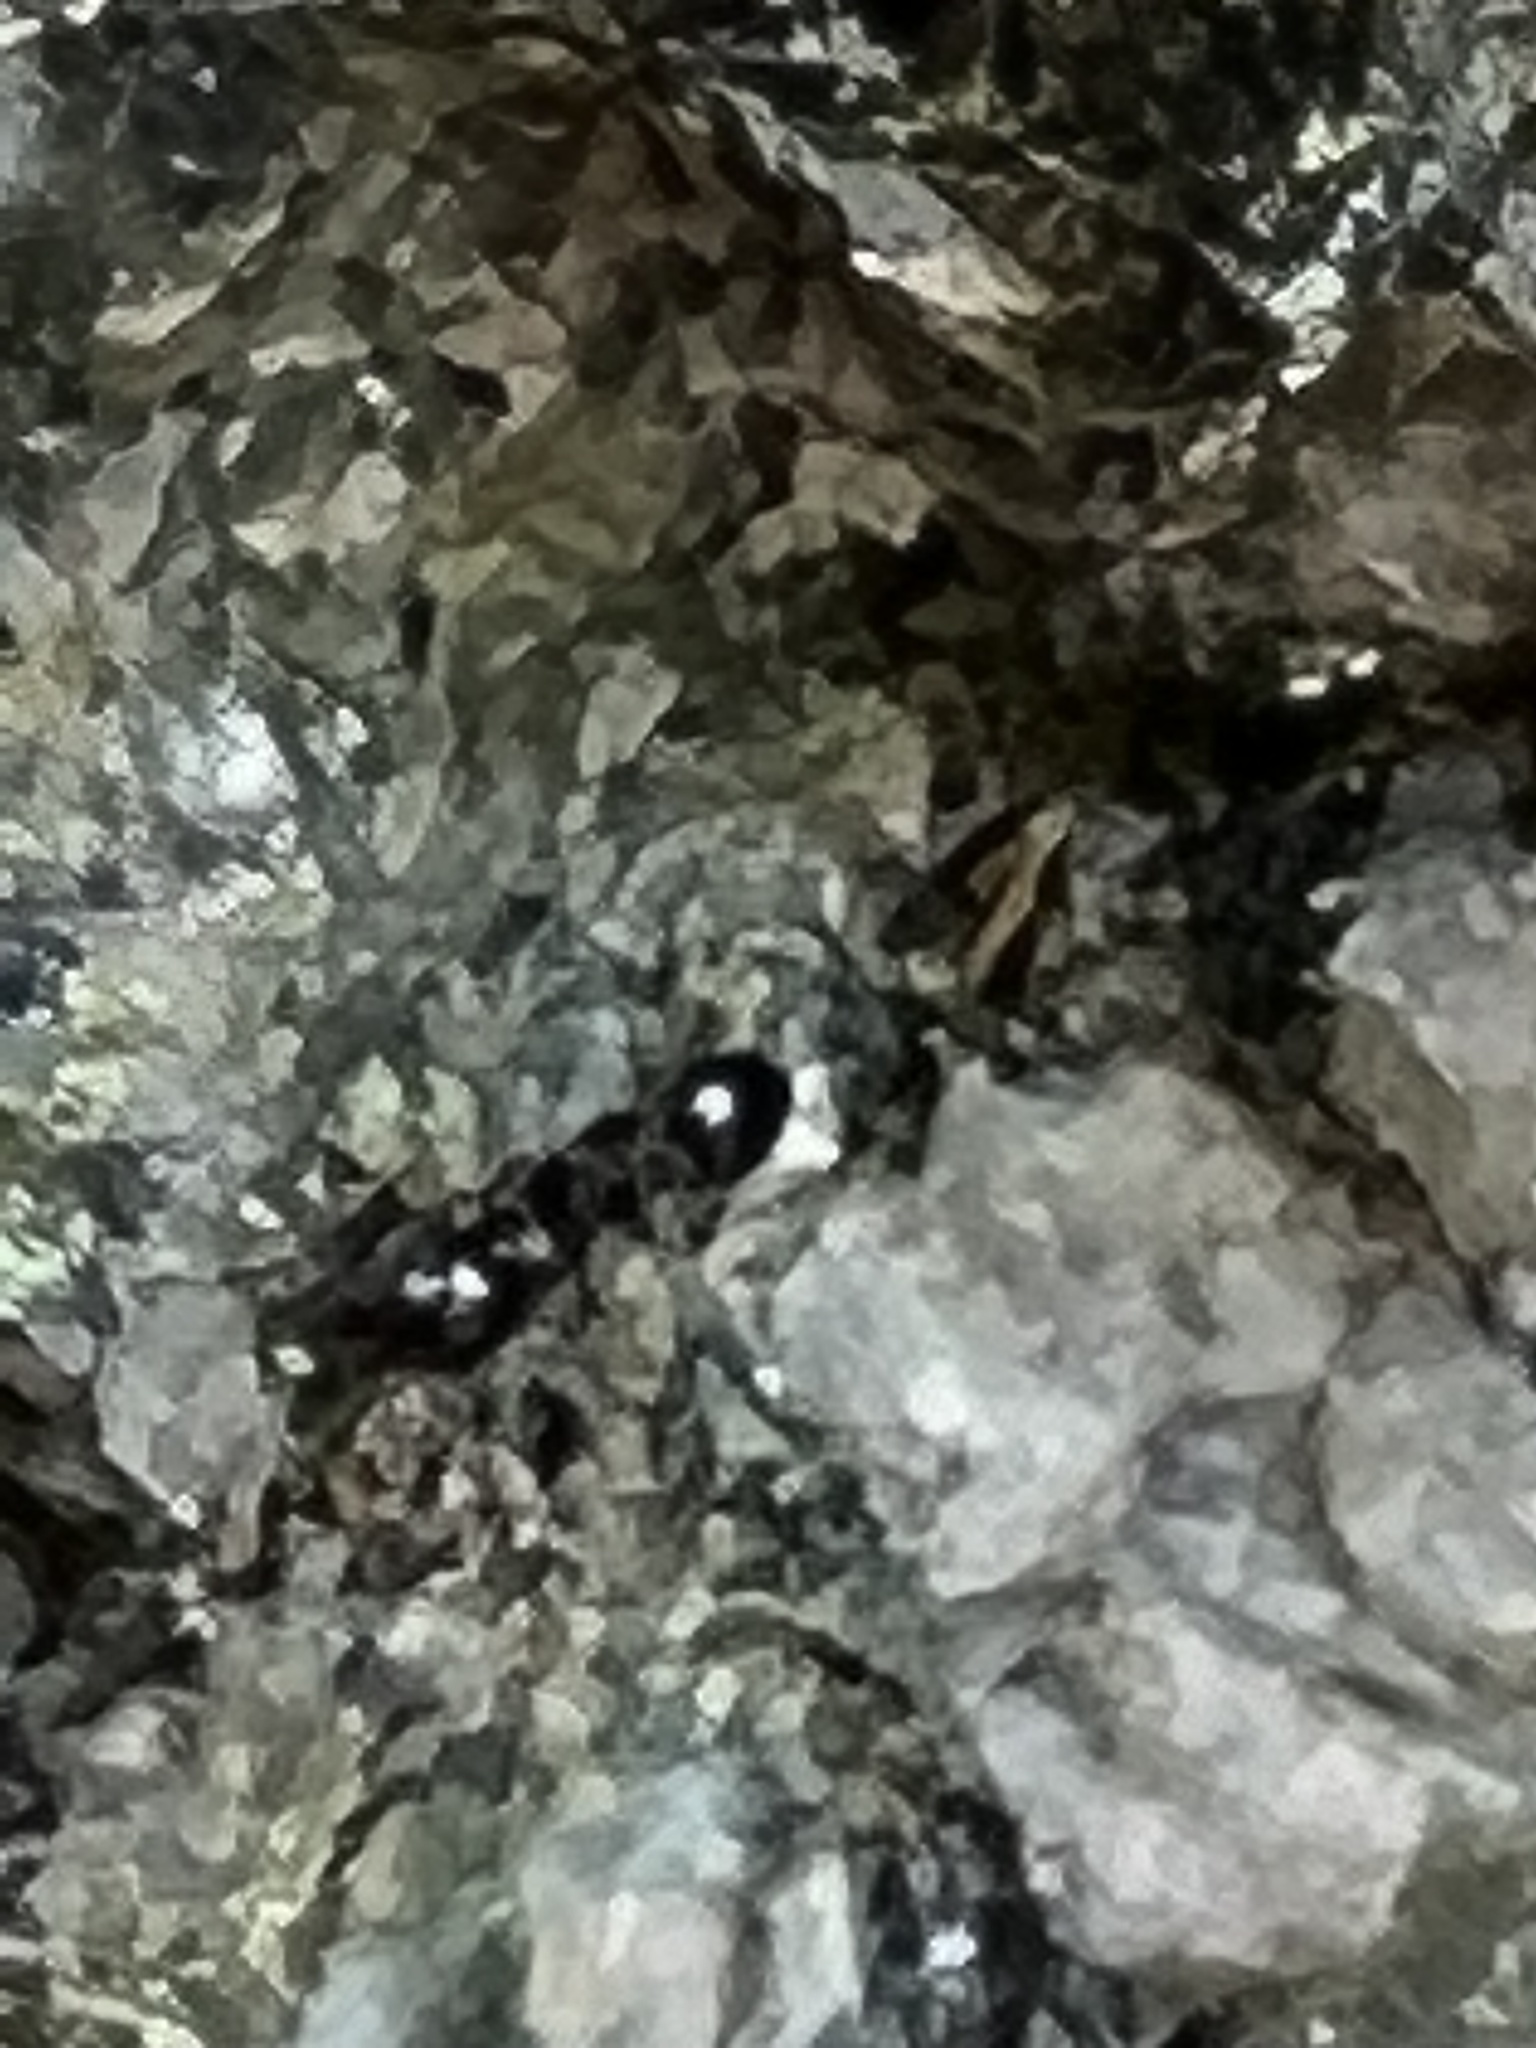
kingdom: Animalia
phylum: Arthropoda
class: Insecta
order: Hymenoptera
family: Formicidae
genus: Temnothorax
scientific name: Temnothorax longispinosus
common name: Long-spined acorn ant
